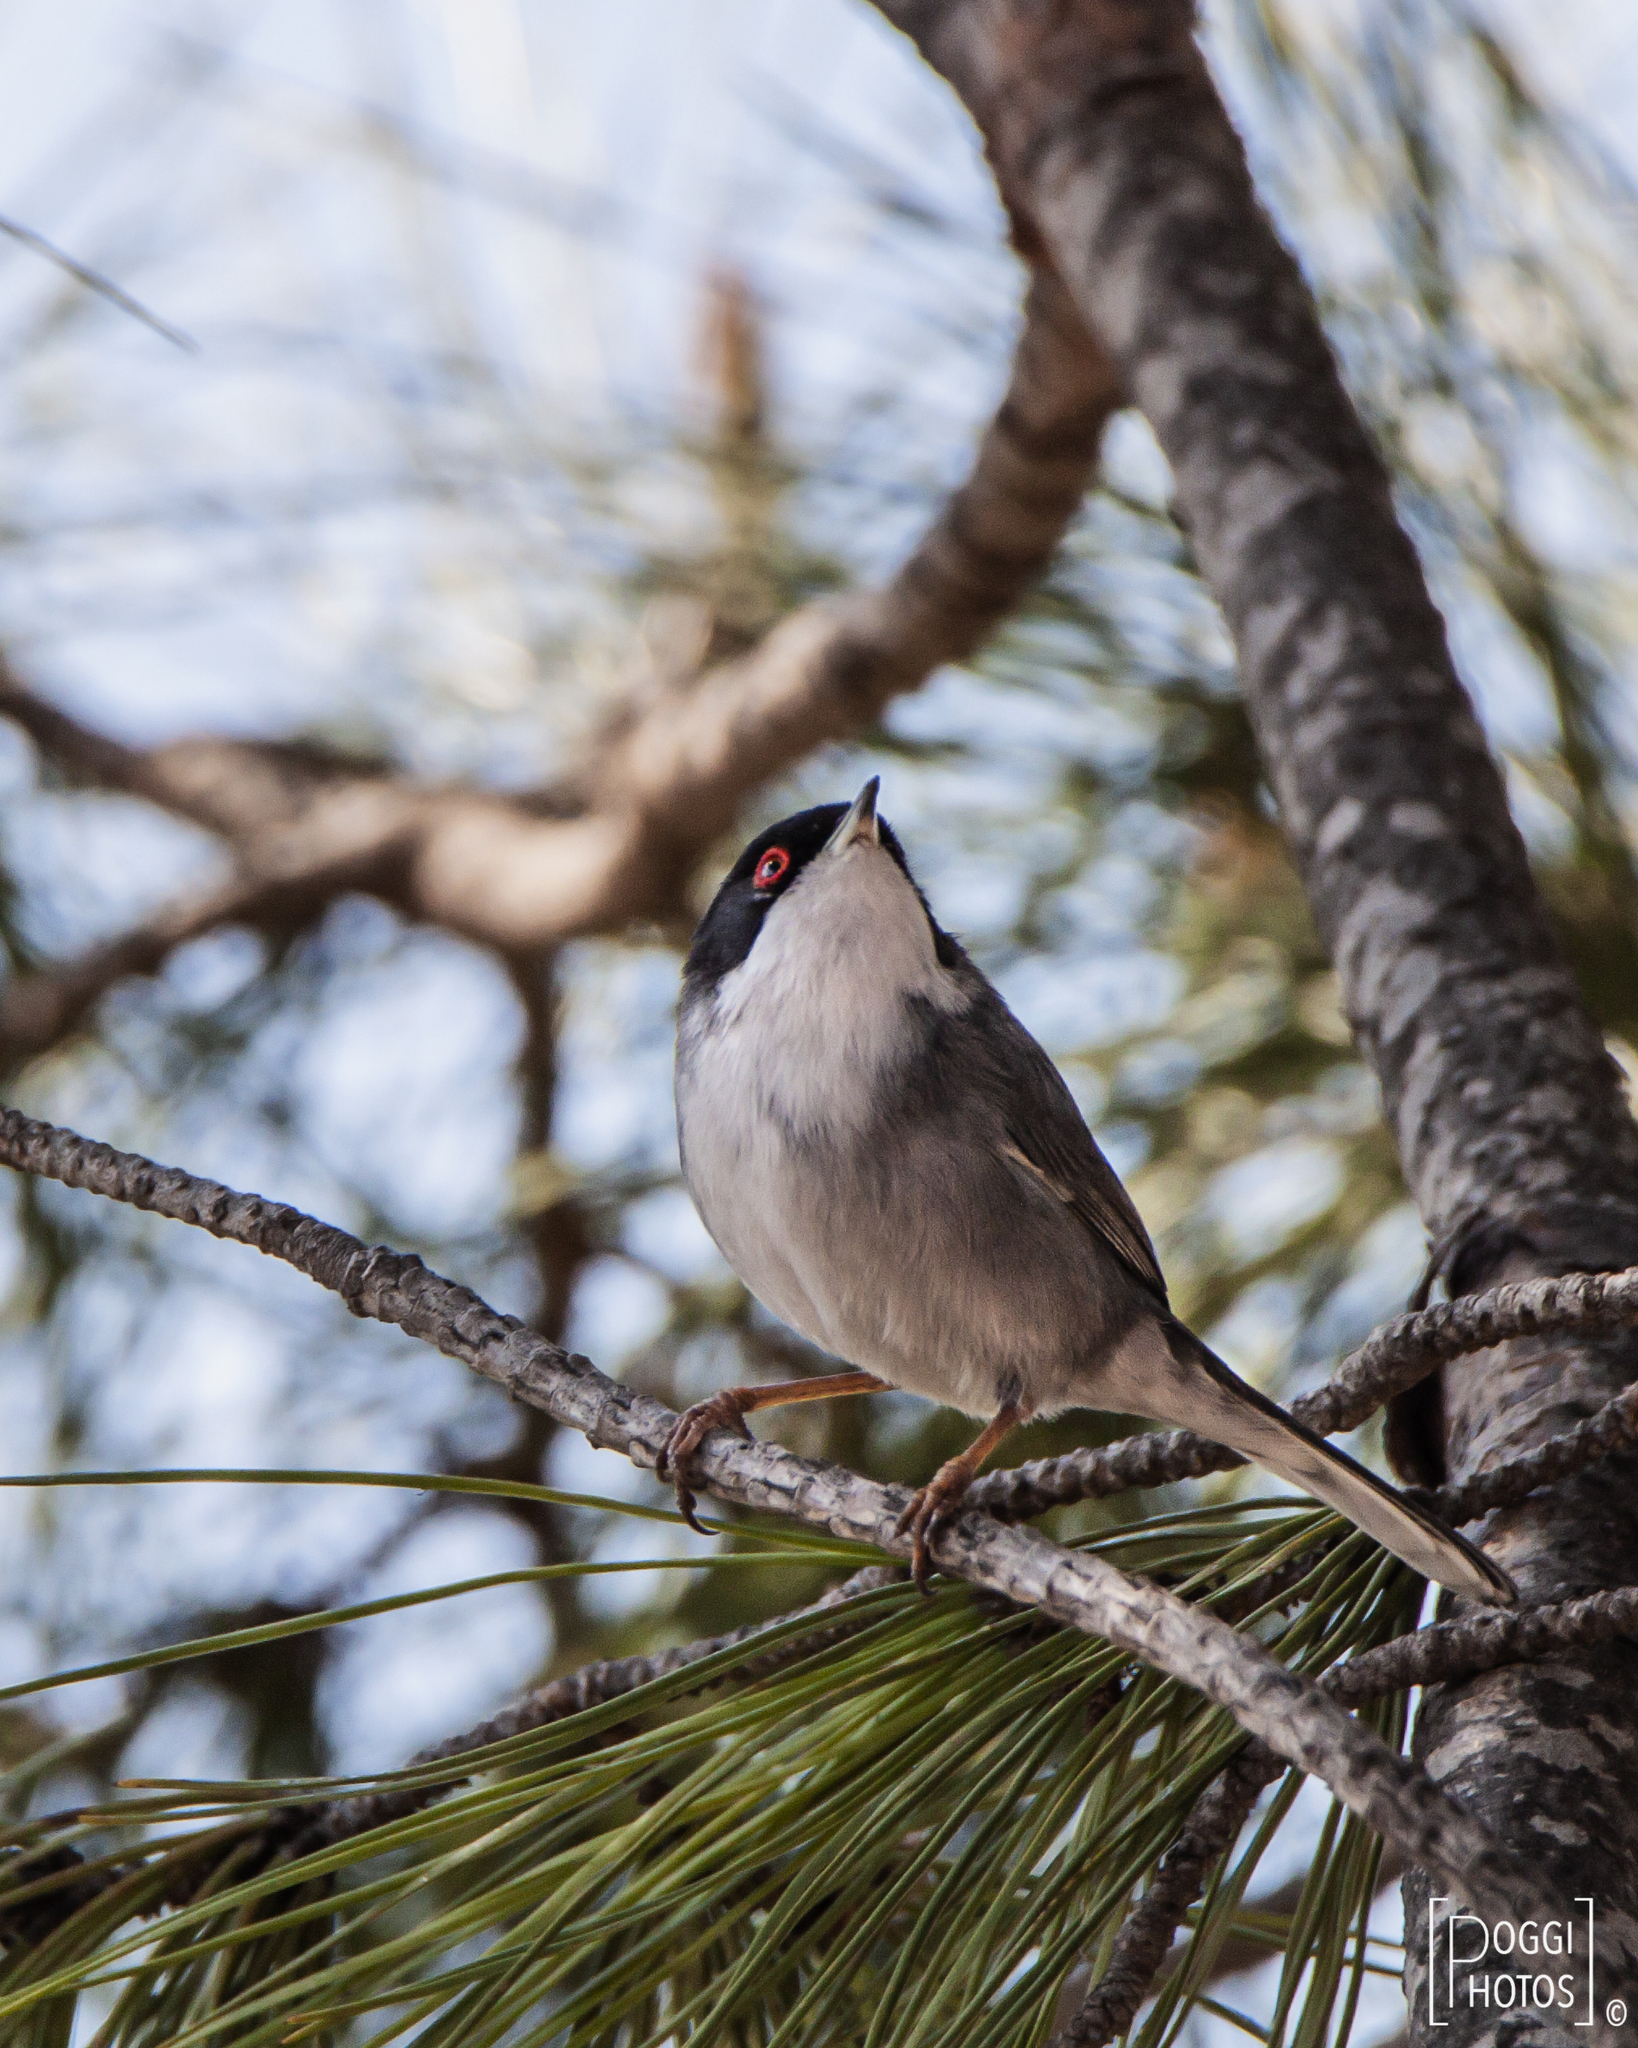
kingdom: Animalia
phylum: Chordata
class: Aves
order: Passeriformes
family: Sylviidae
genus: Curruca
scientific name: Curruca melanocephala
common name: Sardinian warbler
